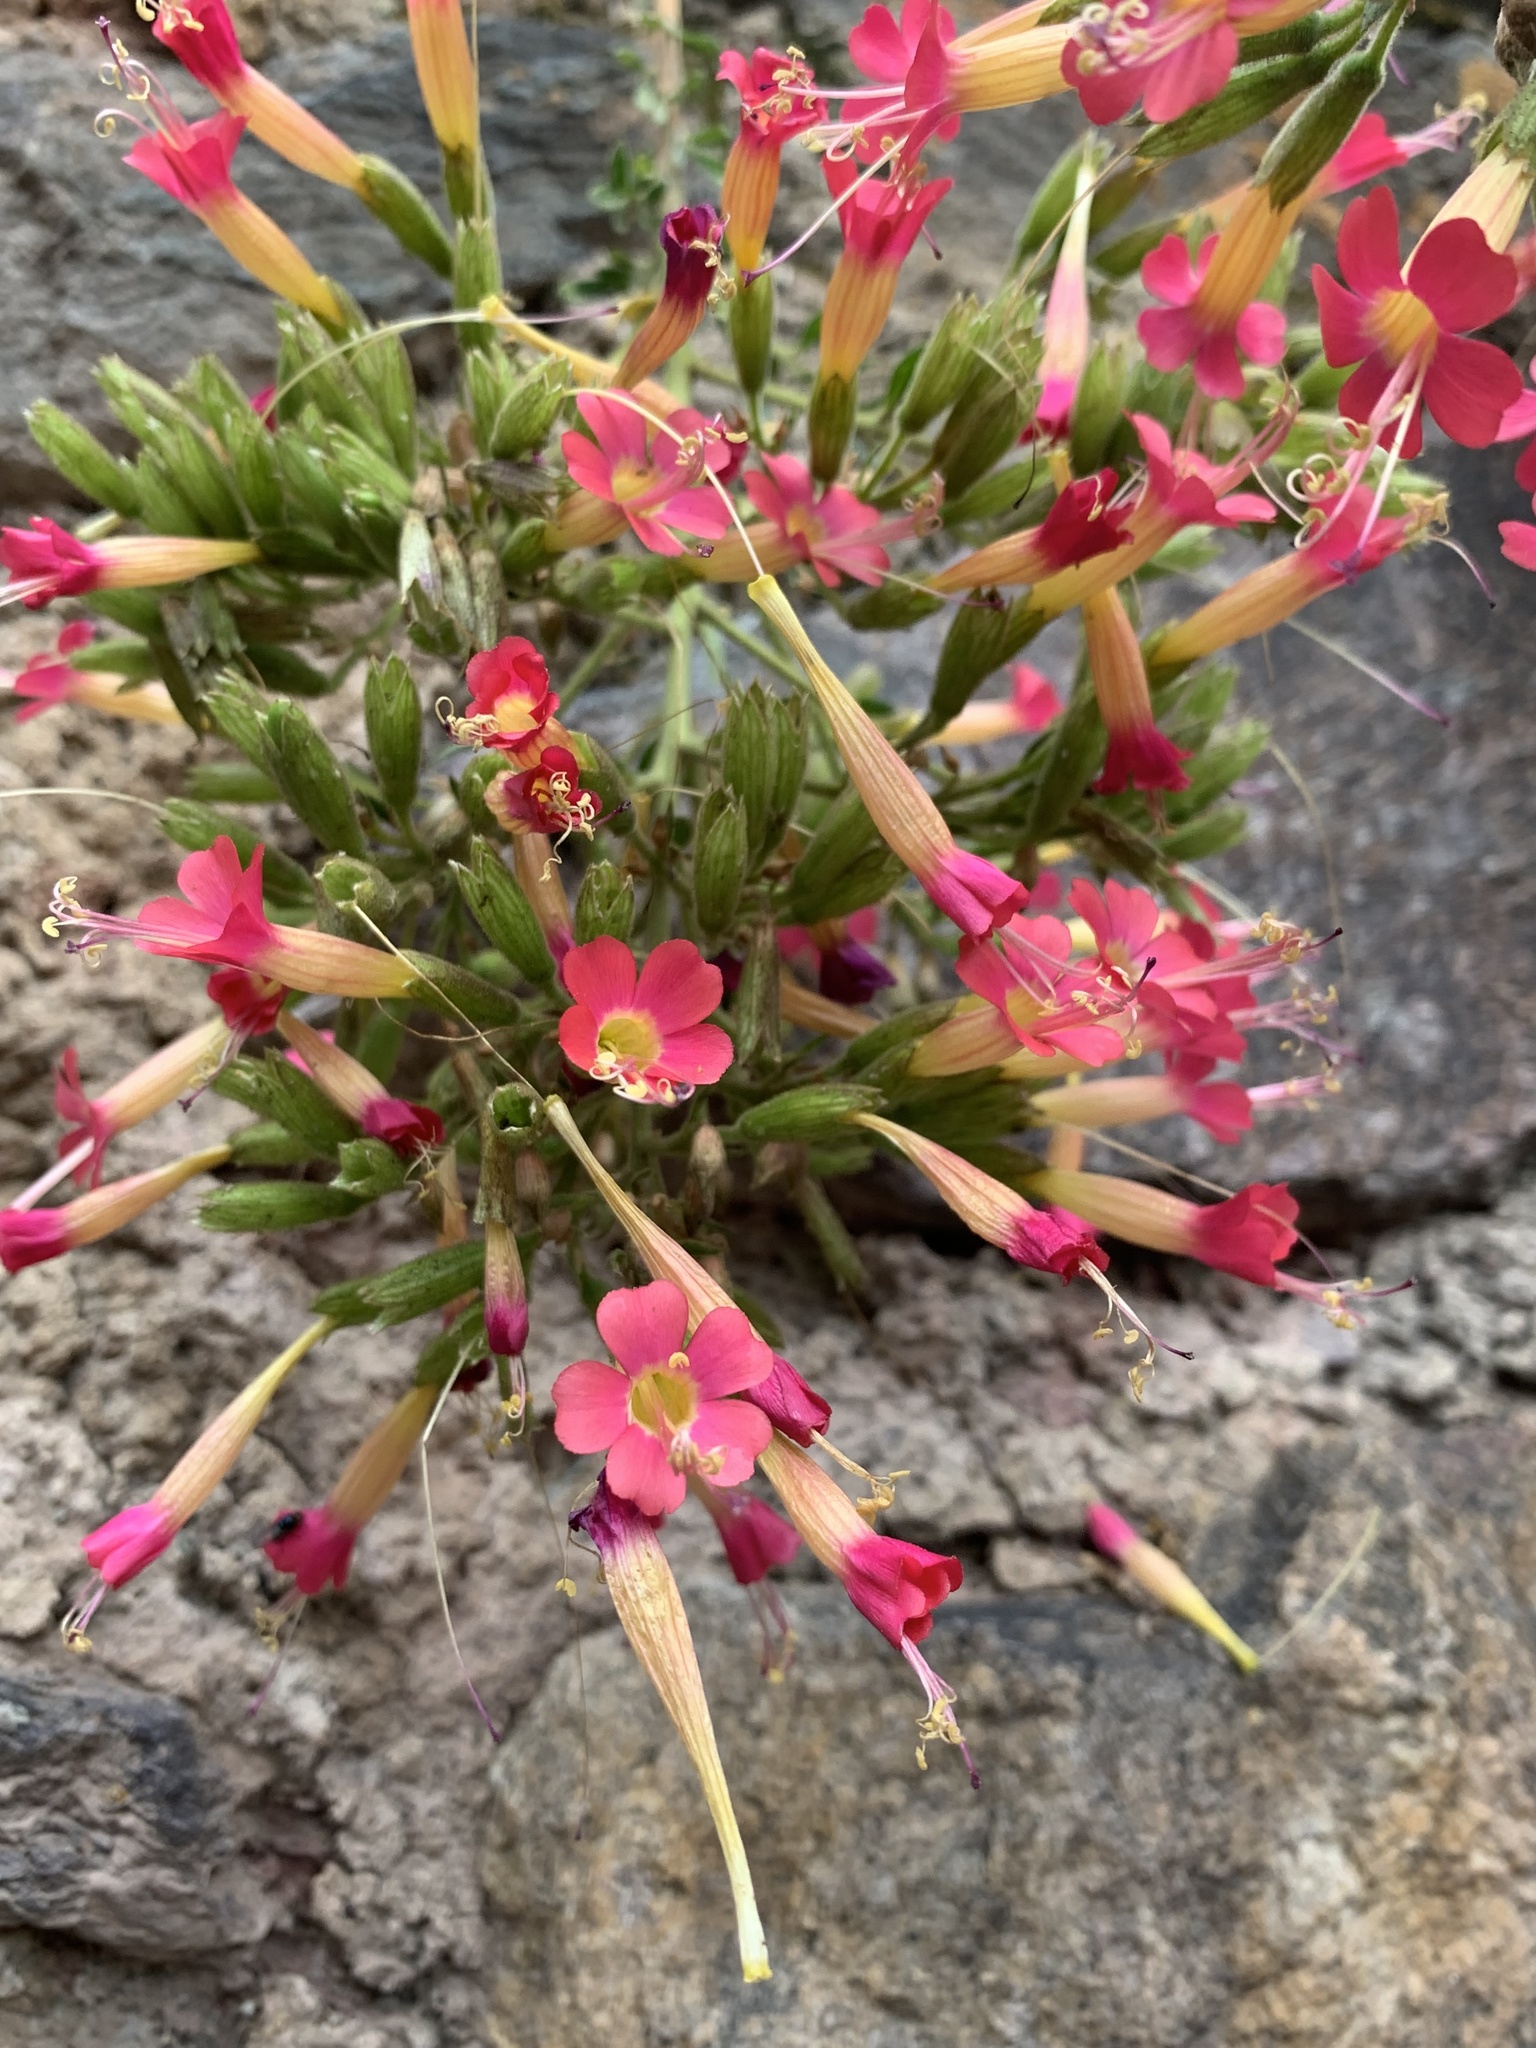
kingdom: Plantae
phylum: Tracheophyta
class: Magnoliopsida
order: Ericales
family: Polemoniaceae
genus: Cantua
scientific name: Cantua cuzcoensis
